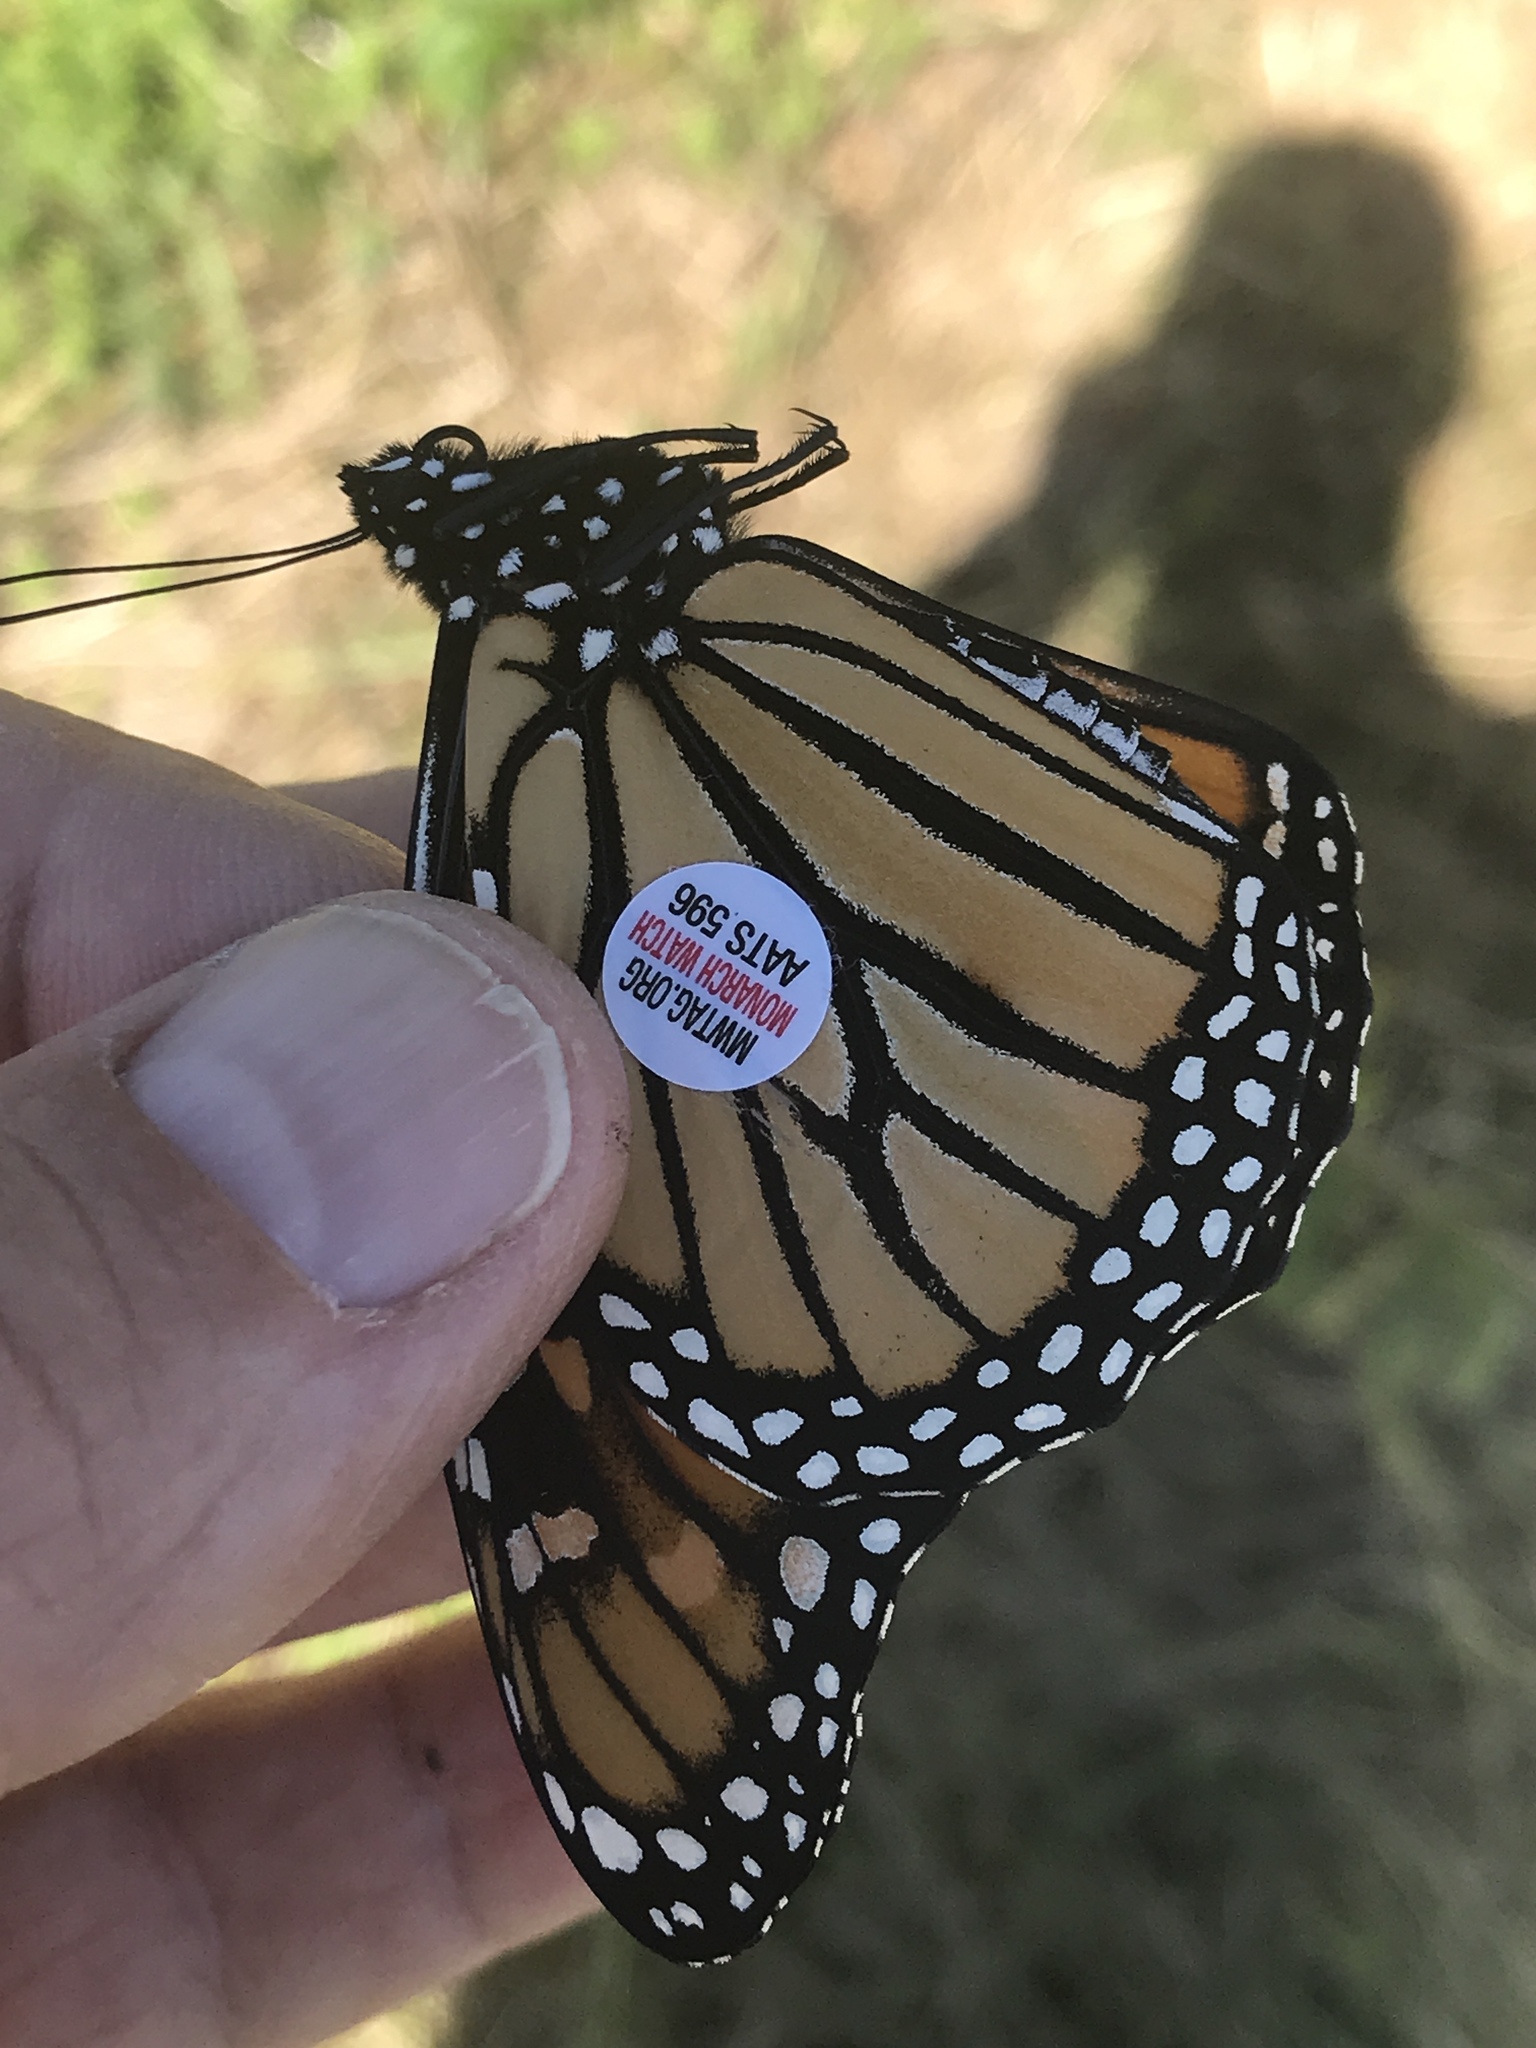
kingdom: Animalia
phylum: Arthropoda
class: Insecta
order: Lepidoptera
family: Nymphalidae
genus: Danaus
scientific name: Danaus plexippus
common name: Monarch
